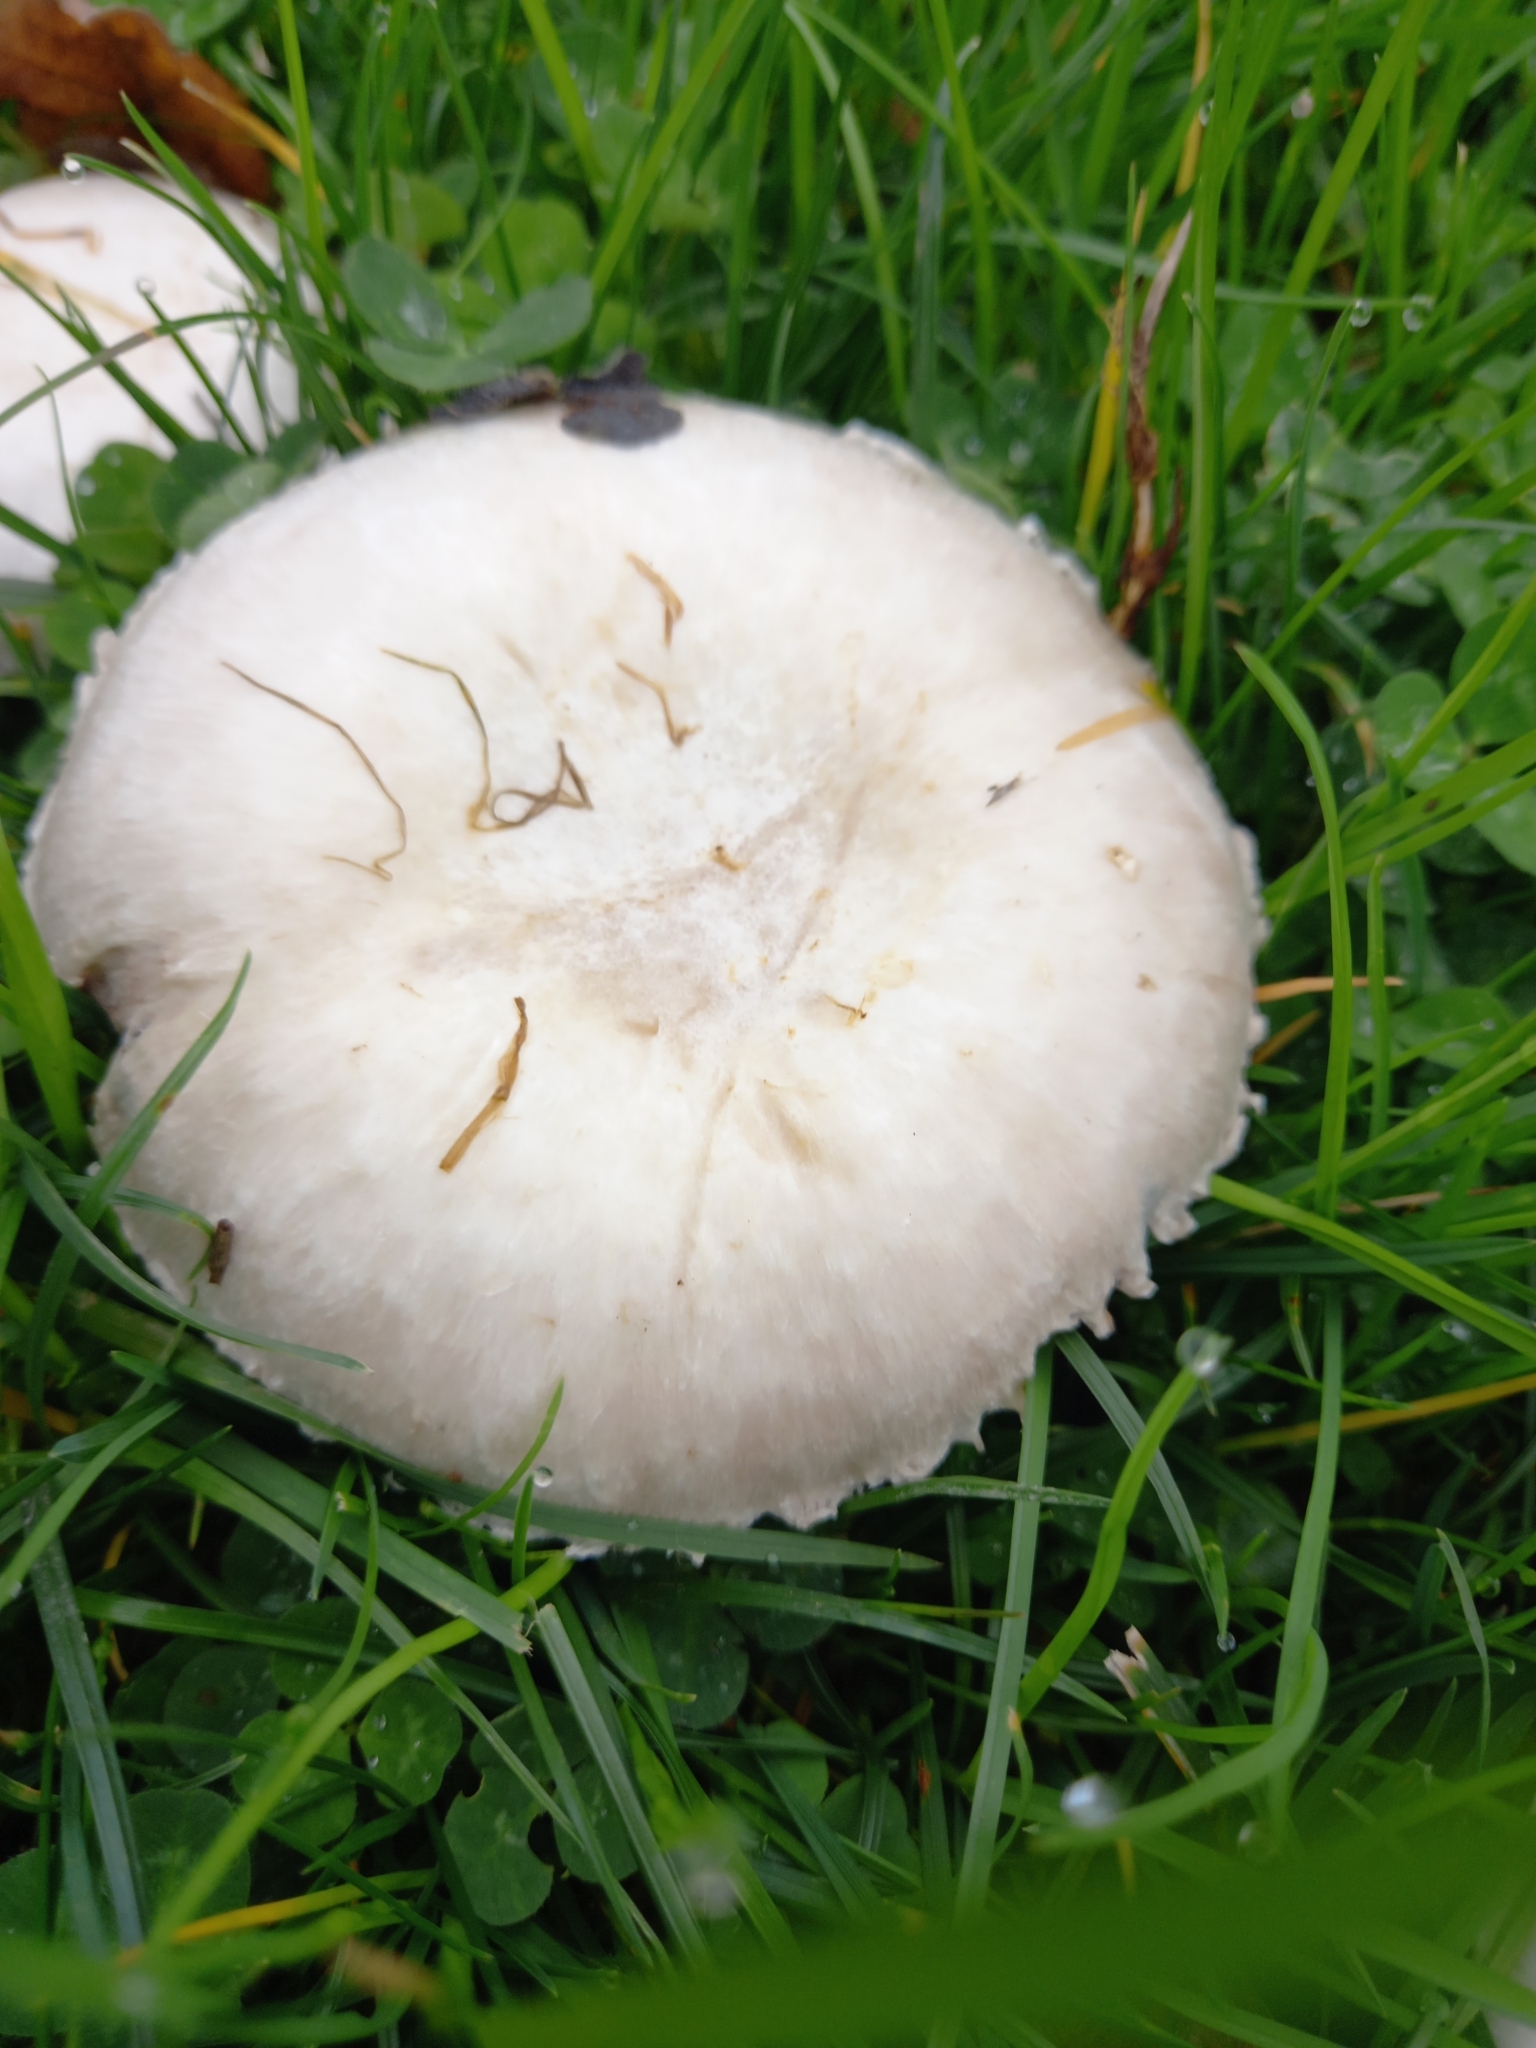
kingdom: Fungi
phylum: Basidiomycota
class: Agaricomycetes
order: Agaricales
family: Agaricaceae
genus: Agaricus
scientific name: Agaricus campestris
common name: Field mushroom
